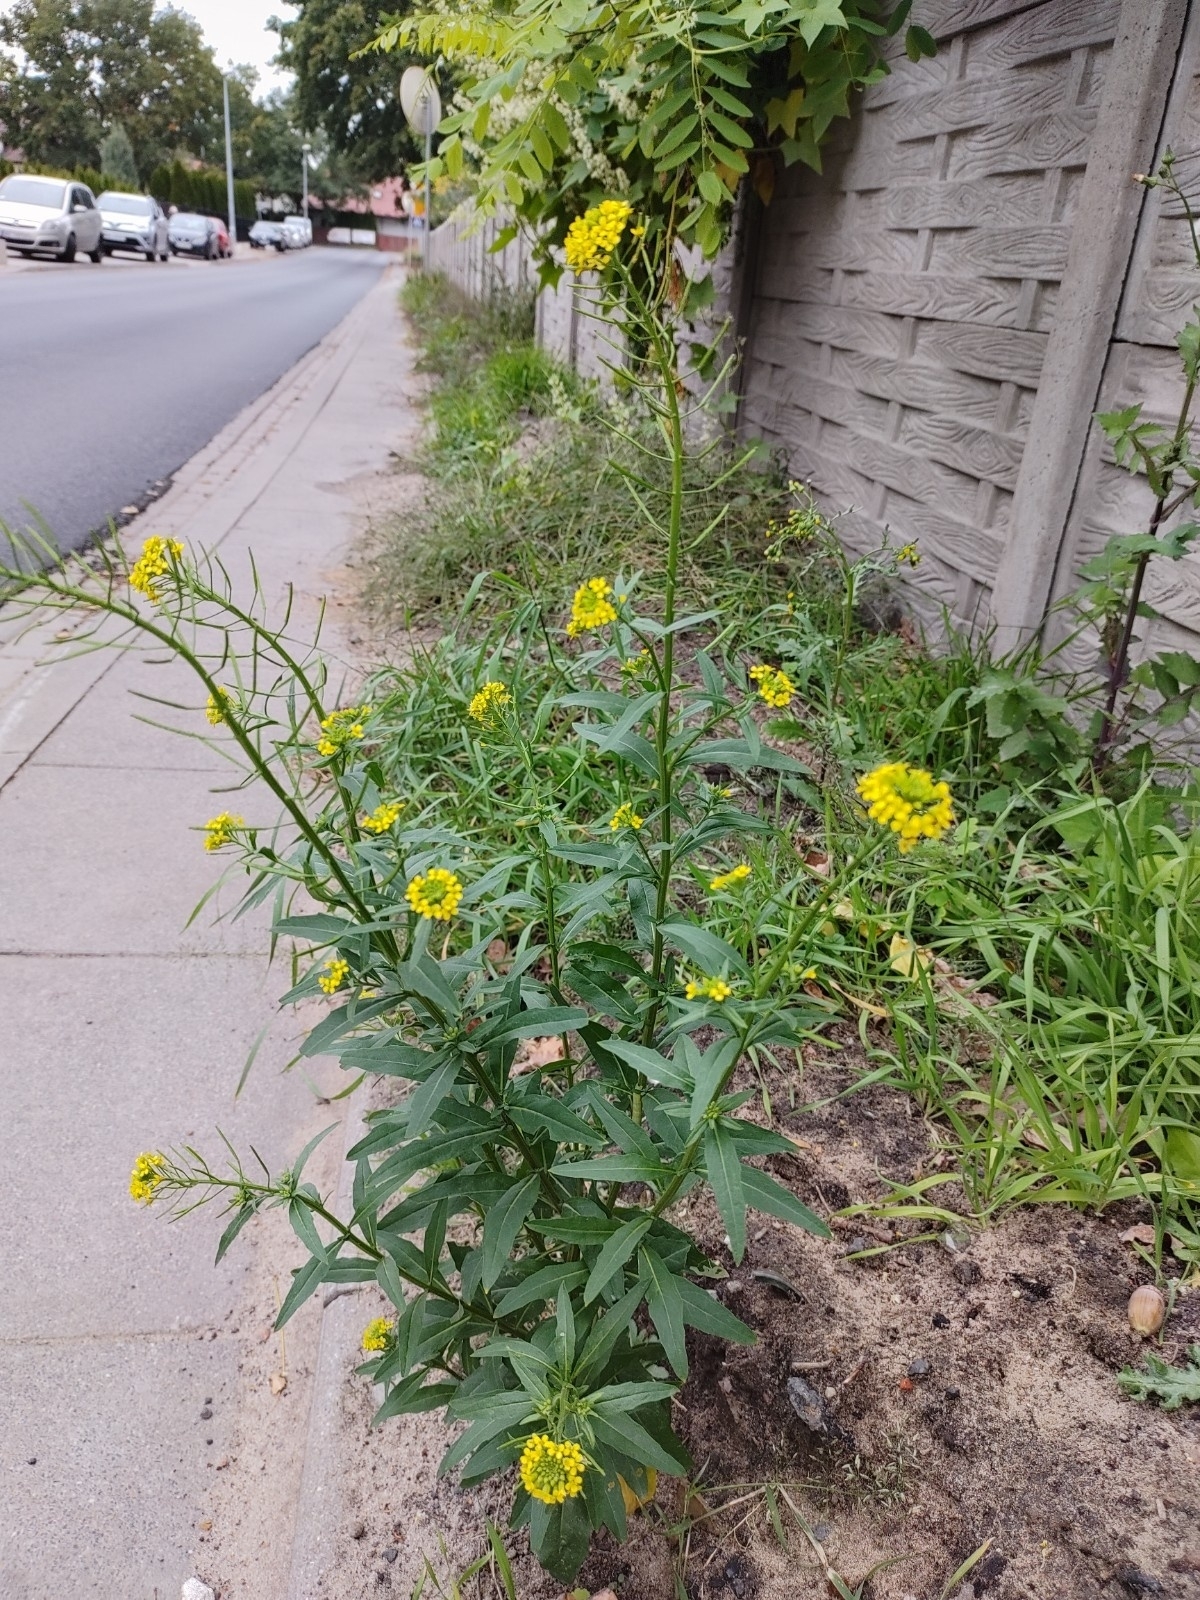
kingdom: Plantae
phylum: Tracheophyta
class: Magnoliopsida
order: Brassicales
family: Brassicaceae
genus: Erysimum
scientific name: Erysimum cheiranthoides
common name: Treacle mustard
